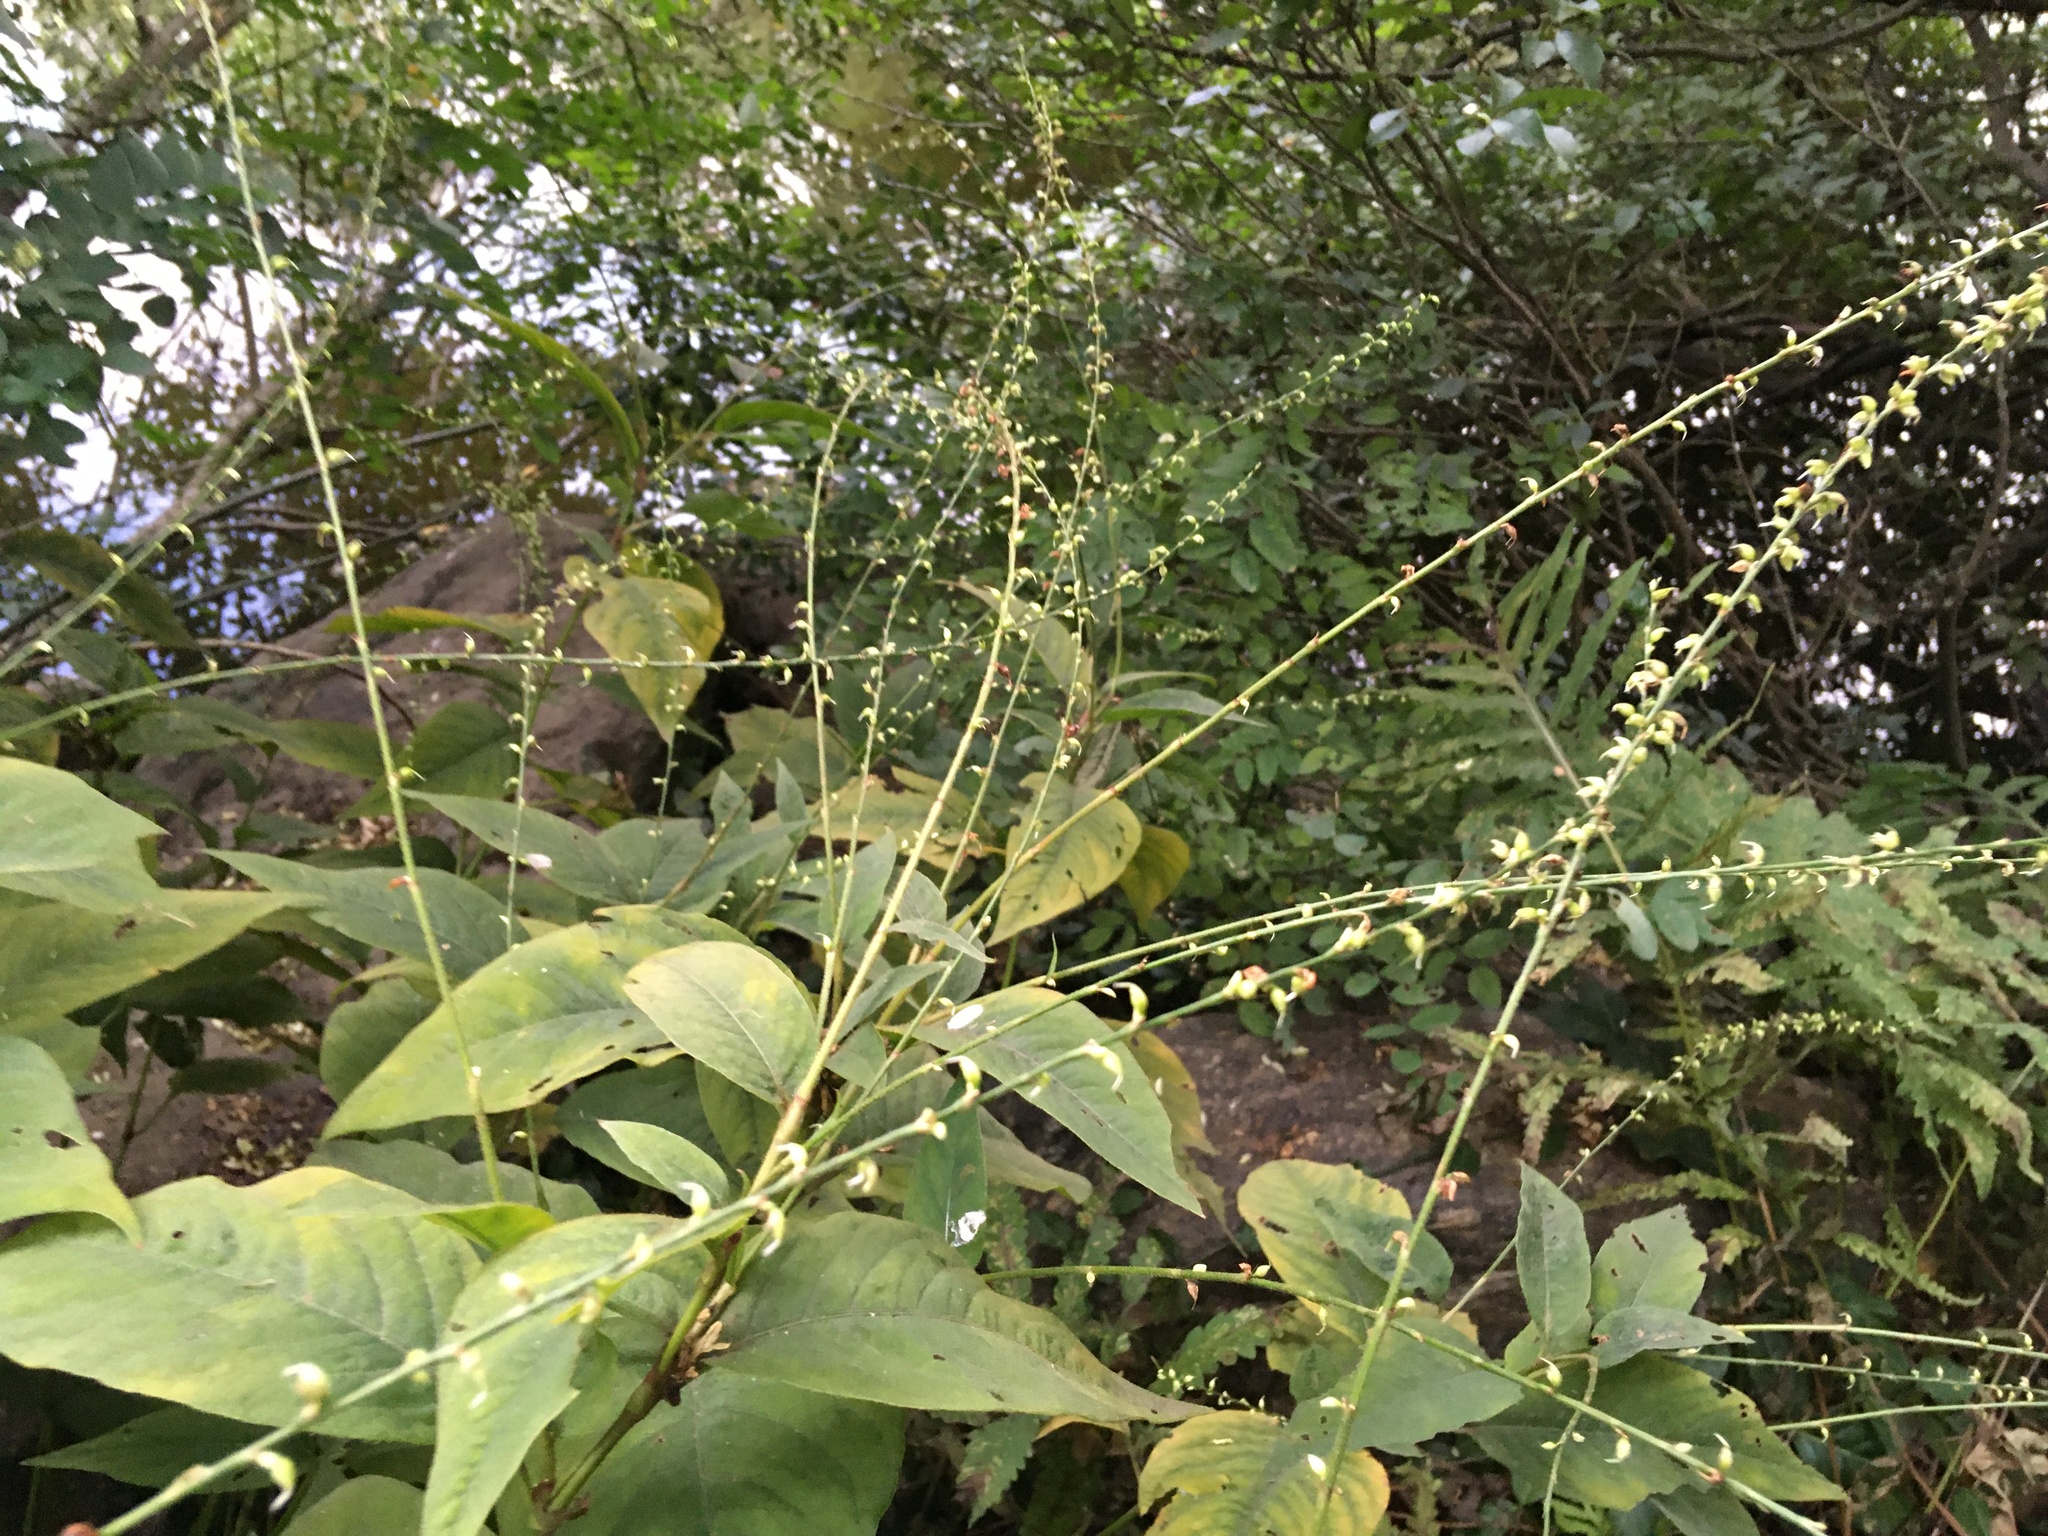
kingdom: Plantae
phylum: Tracheophyta
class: Magnoliopsida
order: Caryophyllales
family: Polygonaceae
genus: Persicaria
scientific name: Persicaria virginiana
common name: Jumpseed
